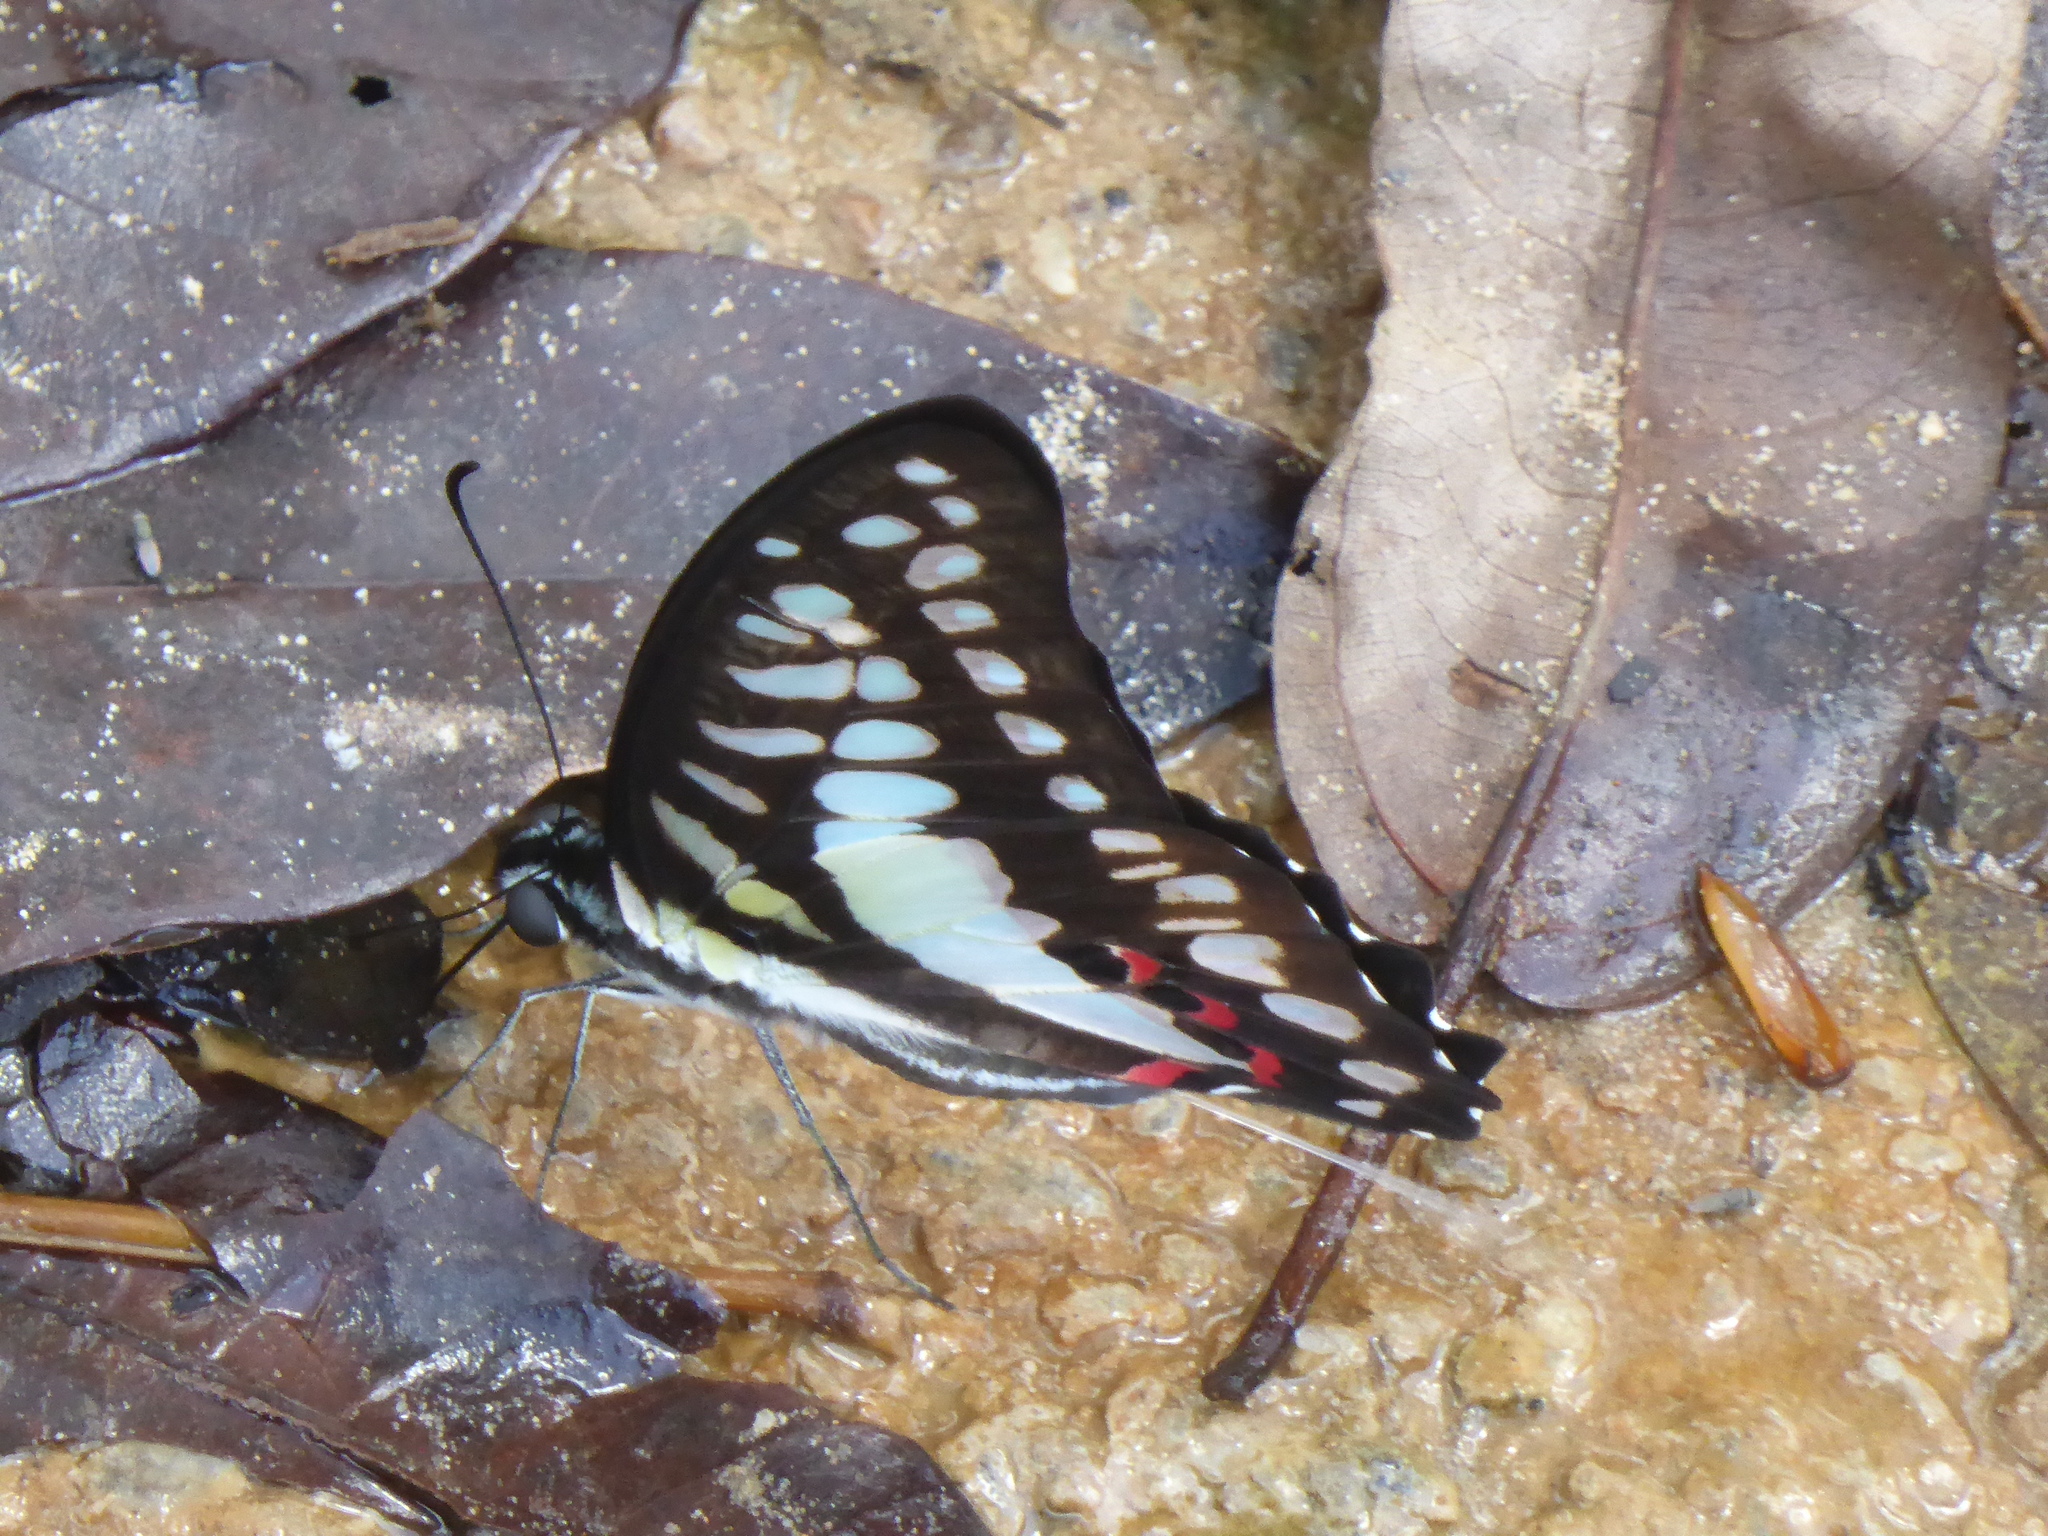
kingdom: Animalia
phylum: Arthropoda
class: Insecta
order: Lepidoptera
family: Papilionidae
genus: Graphium
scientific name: Graphium evemon
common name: Lesser jay
